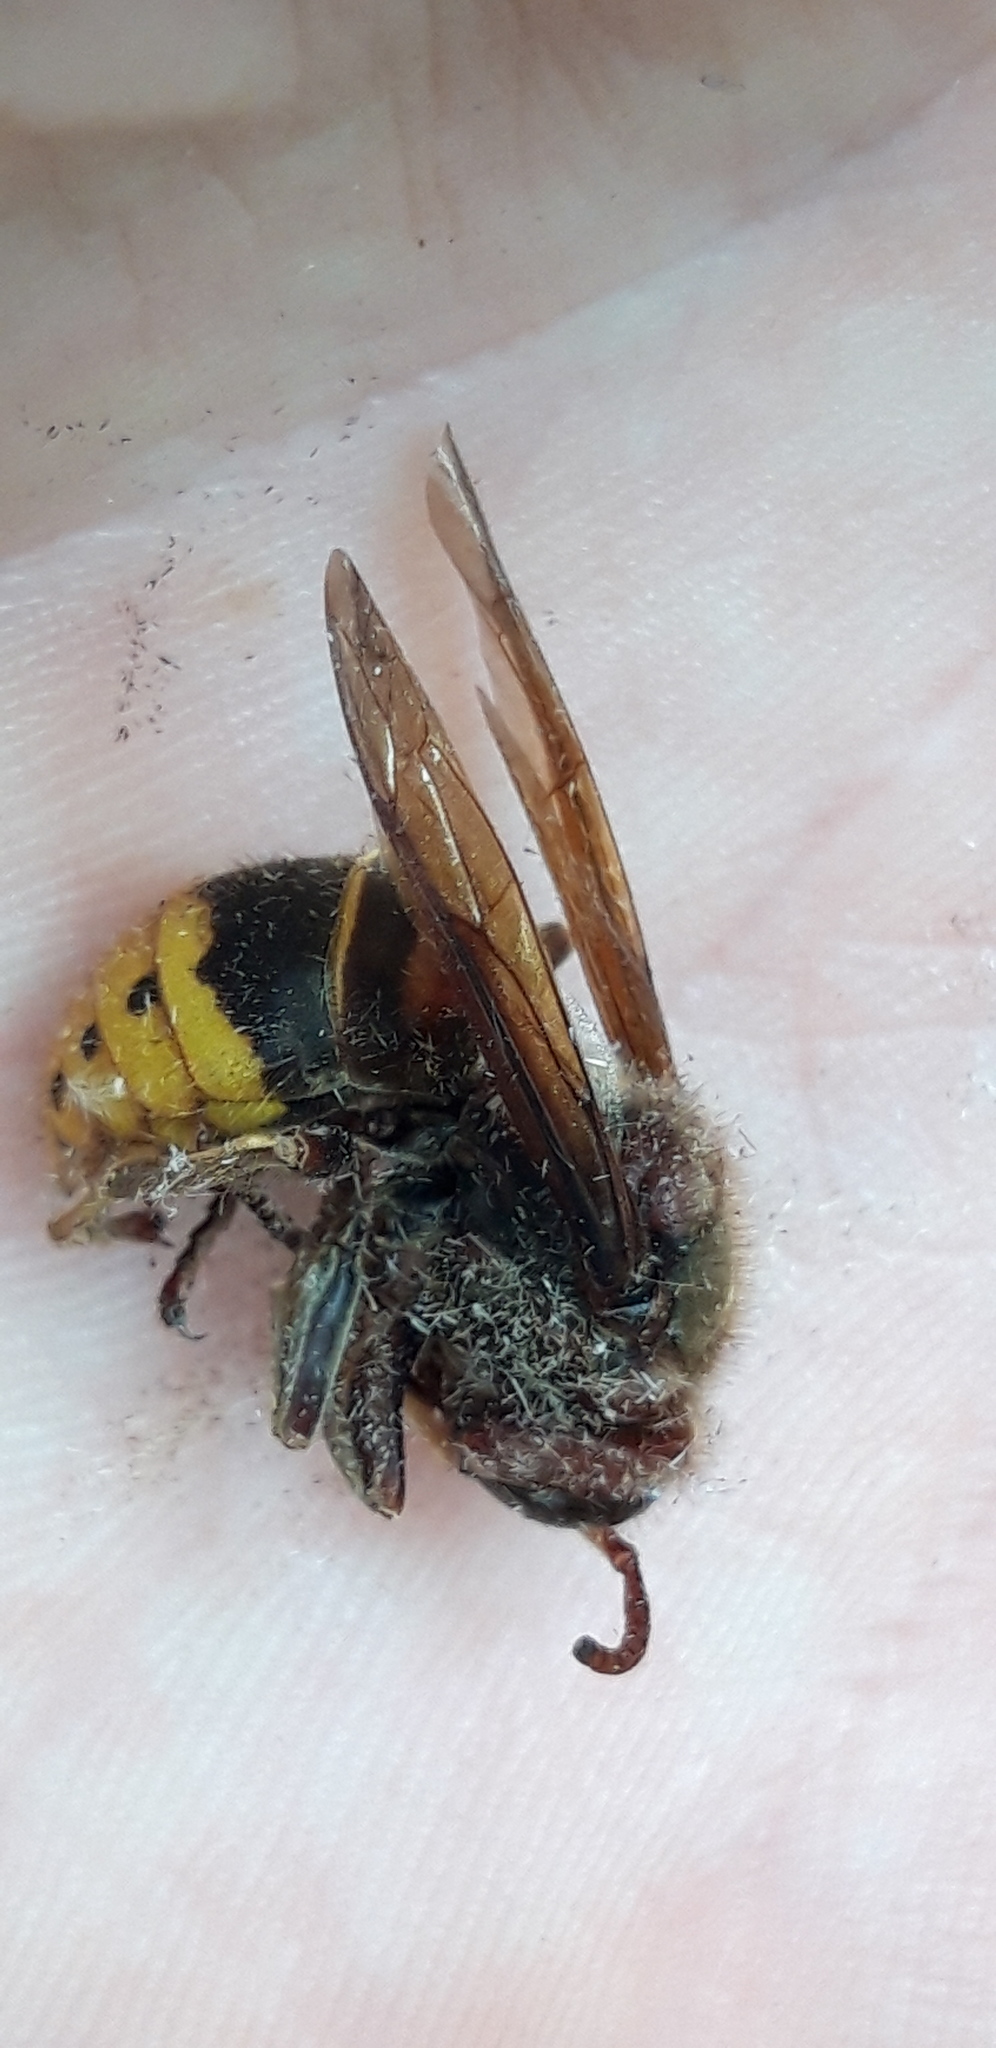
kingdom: Animalia
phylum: Arthropoda
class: Insecta
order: Hymenoptera
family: Vespidae
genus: Vespa
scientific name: Vespa crabro
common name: Hornet
